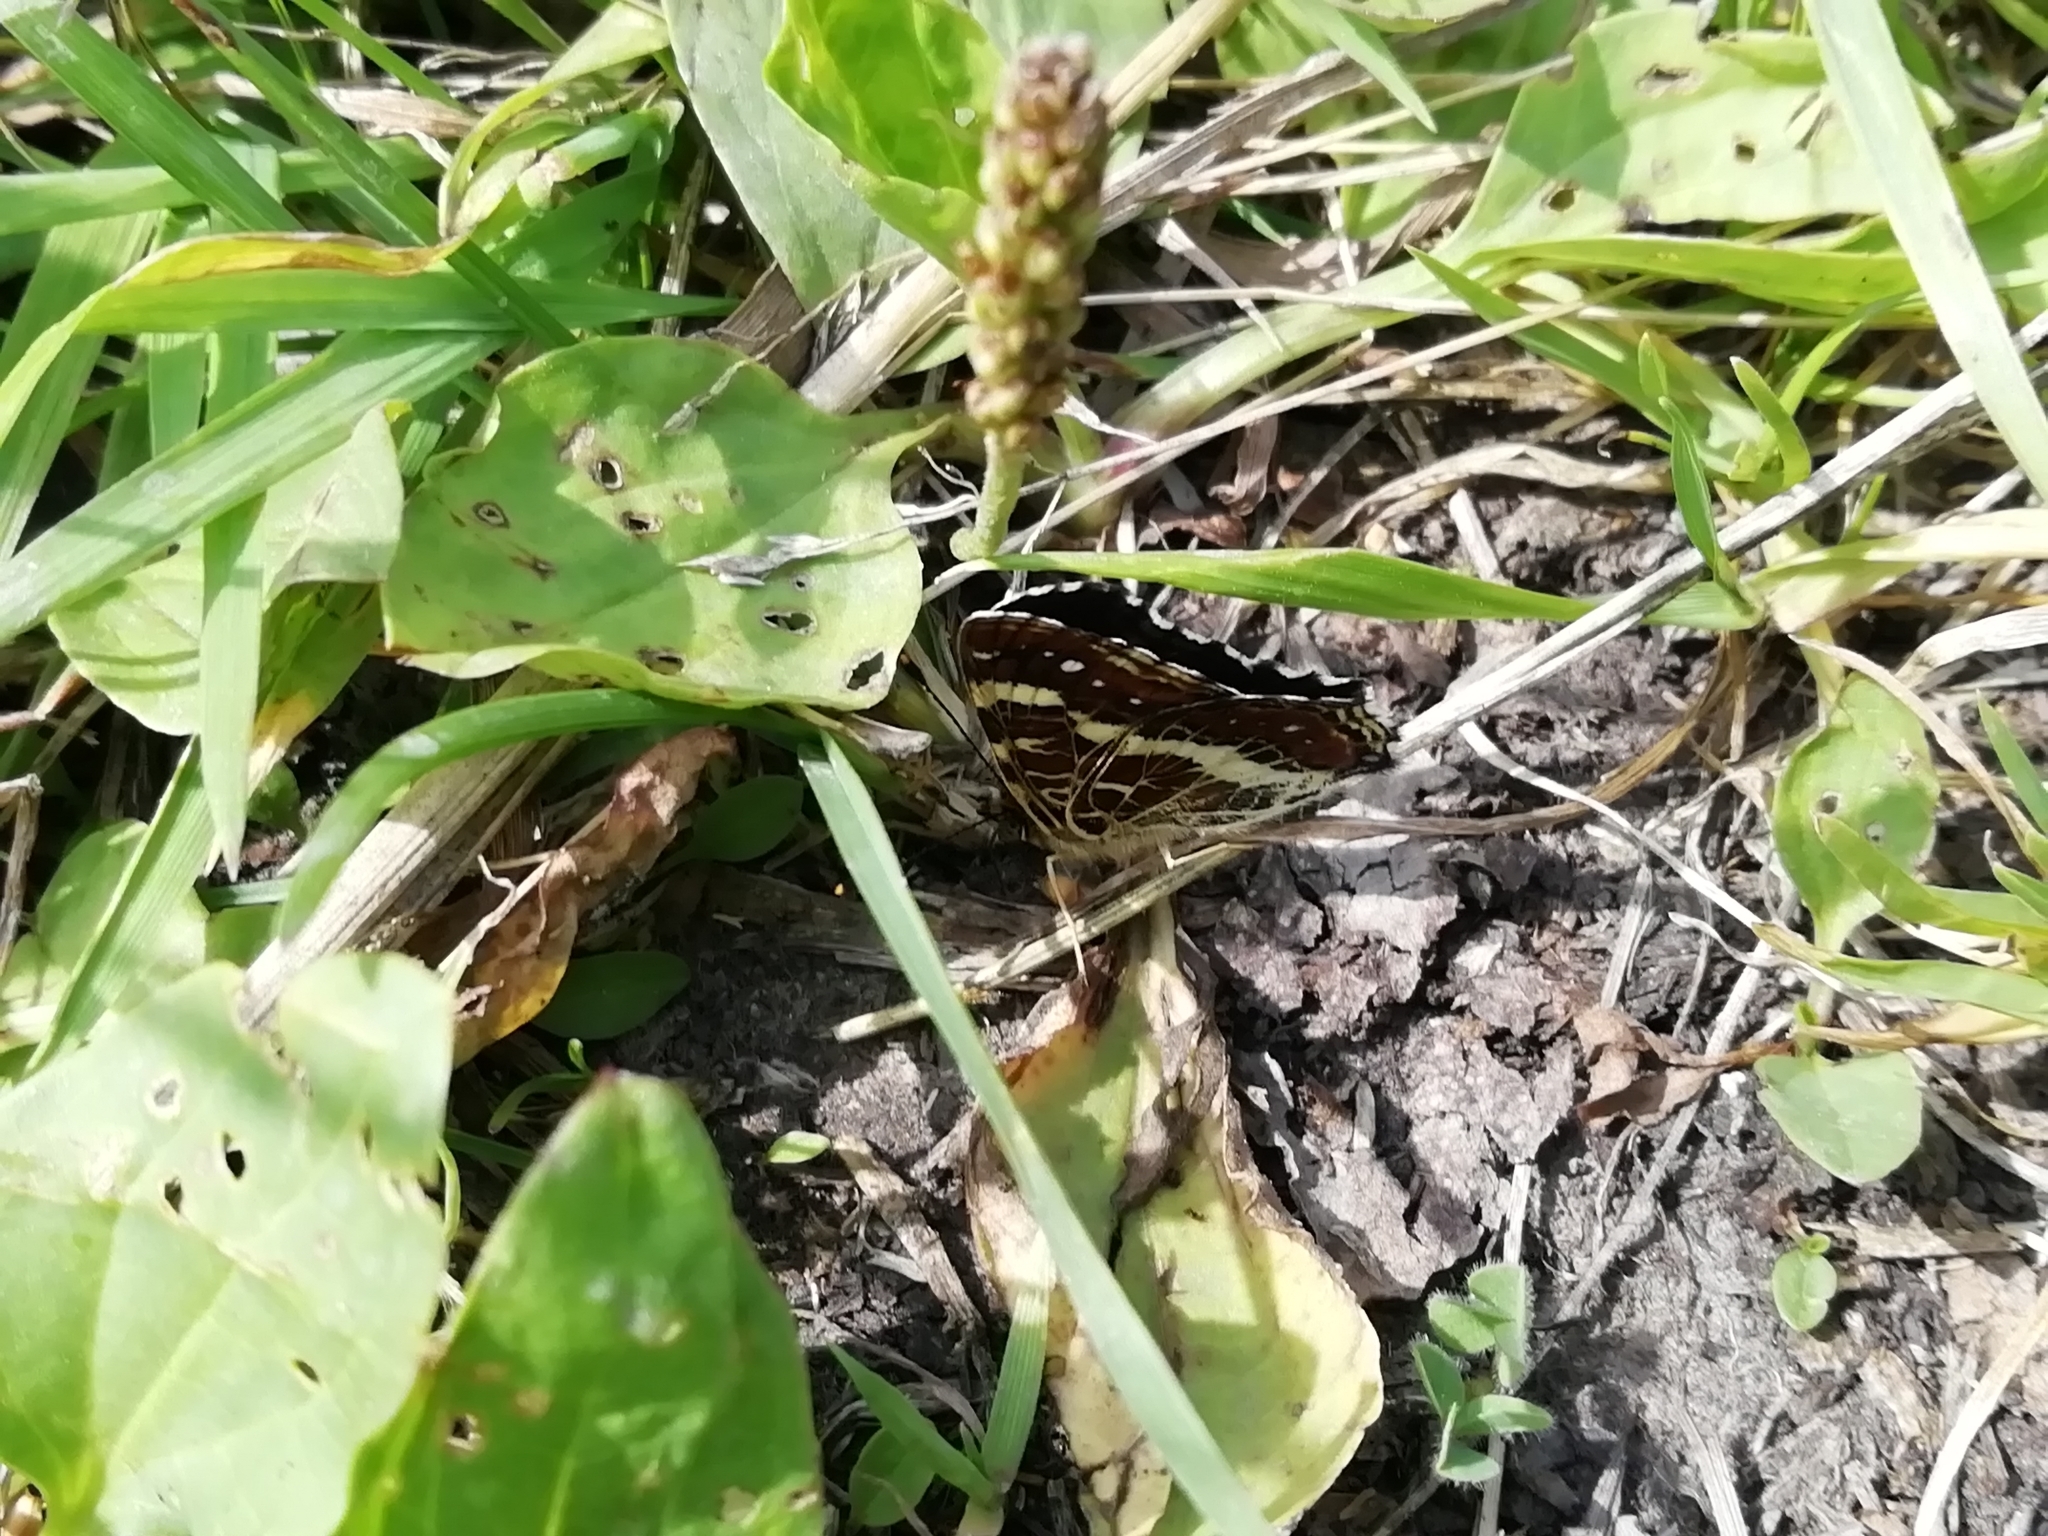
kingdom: Animalia
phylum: Arthropoda
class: Insecta
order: Lepidoptera
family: Nymphalidae
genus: Araschnia
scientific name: Araschnia levana
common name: Map butterfly
